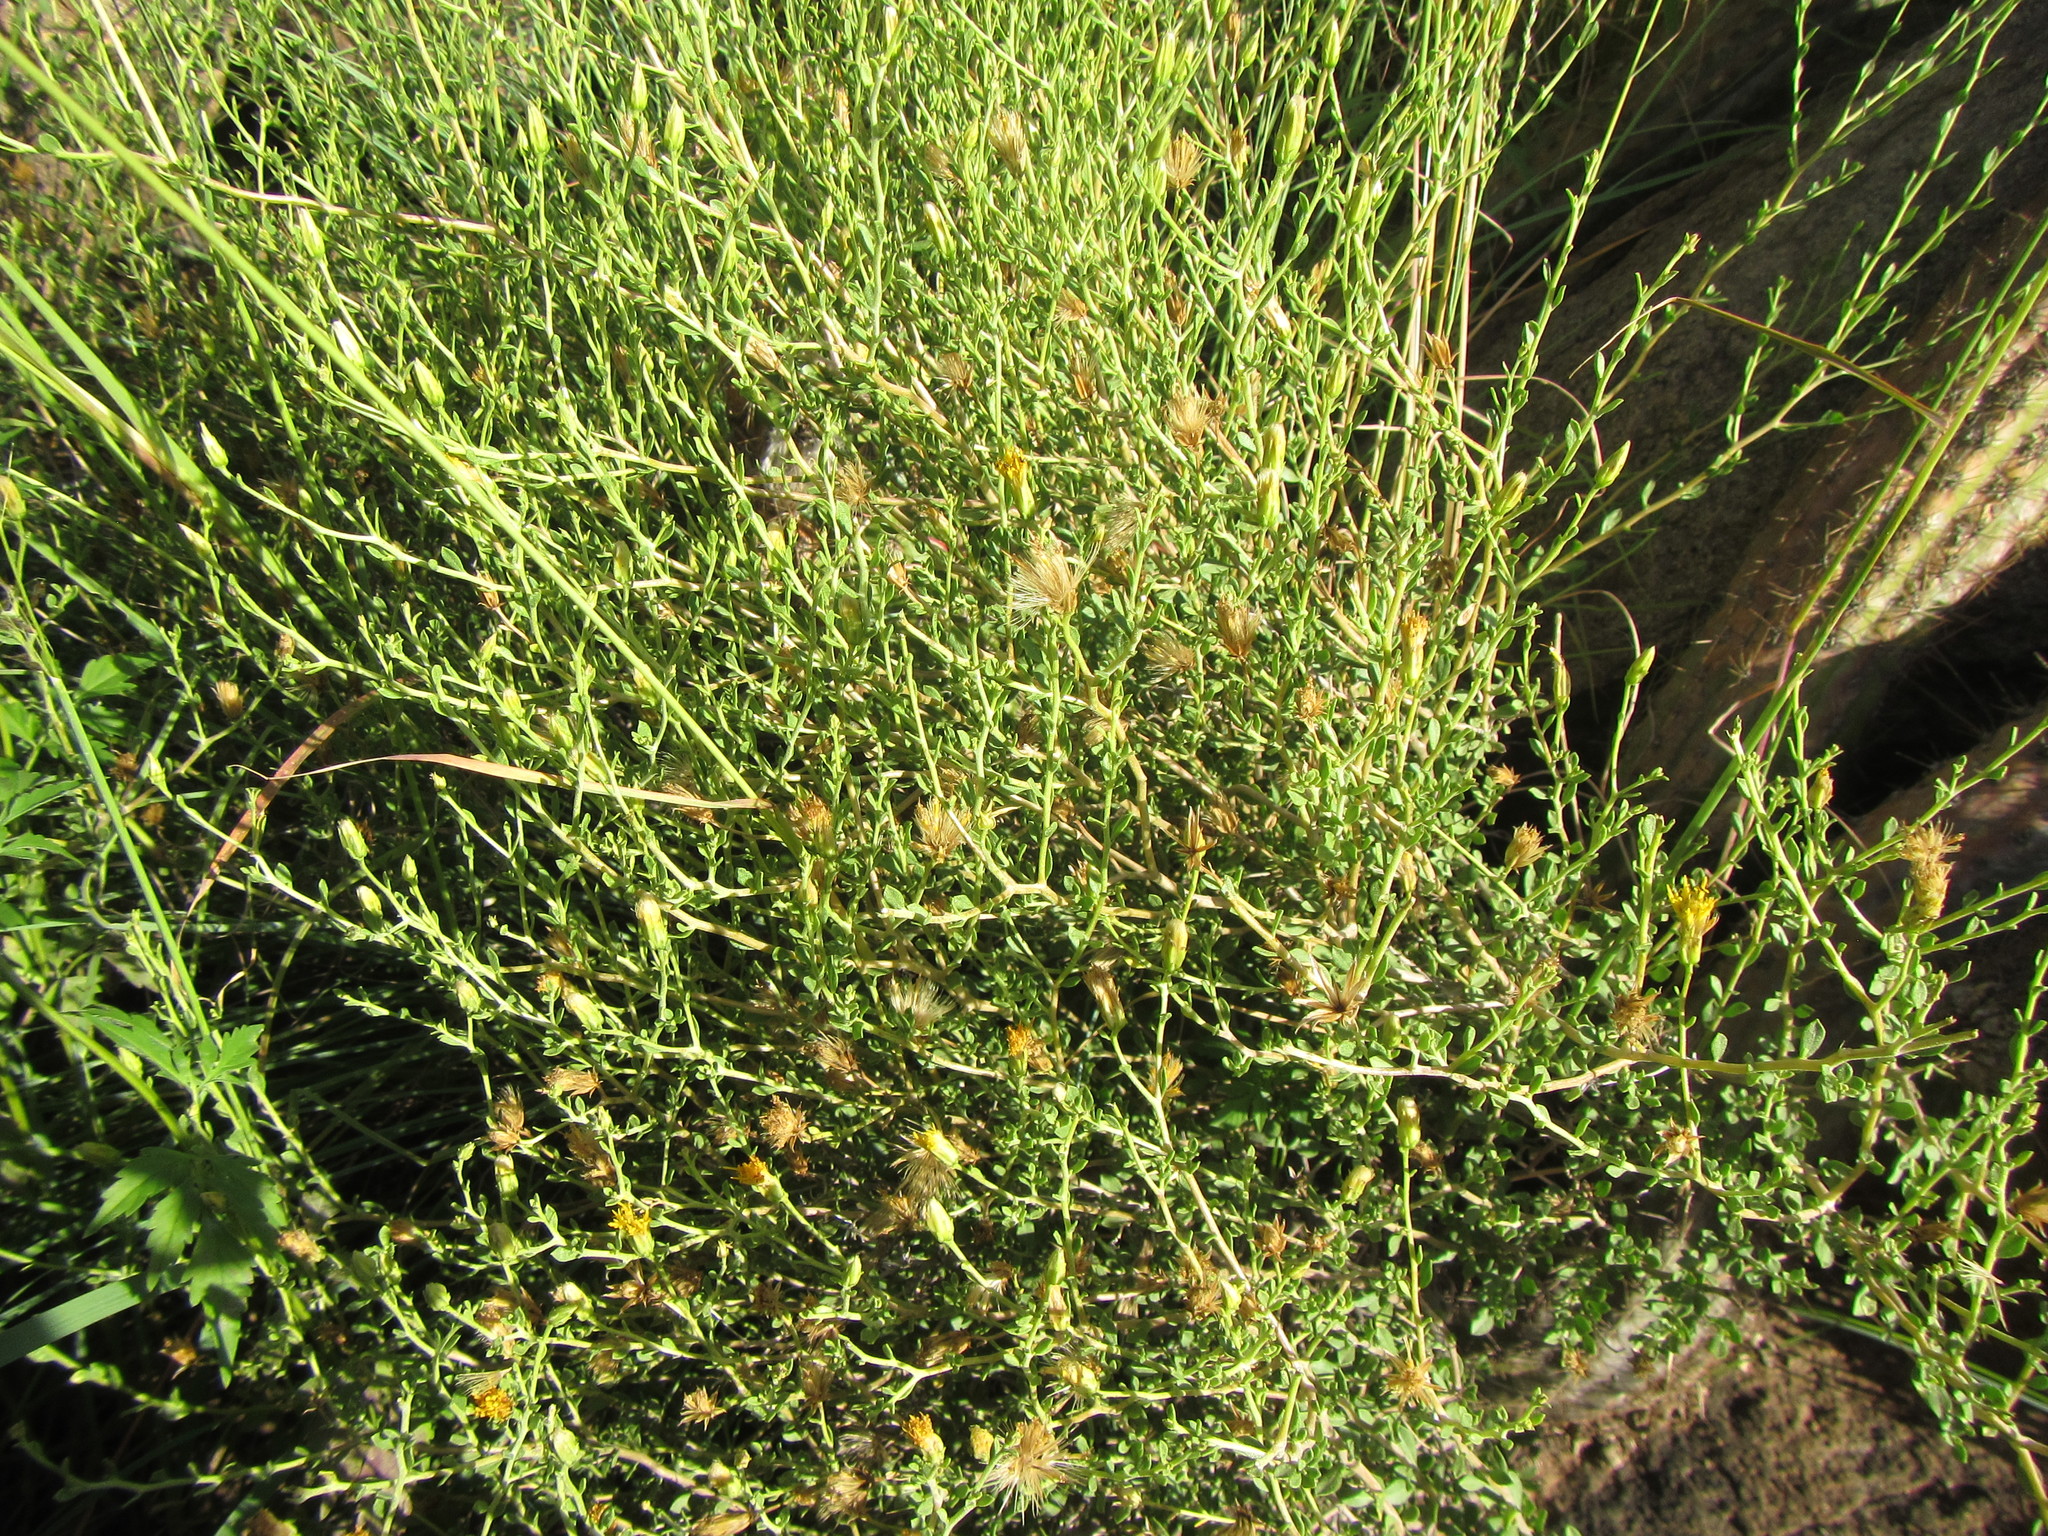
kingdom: Plantae
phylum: Tracheophyta
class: Magnoliopsida
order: Asterales
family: Asteraceae
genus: Pegolettia
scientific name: Pegolettia retrofracta
